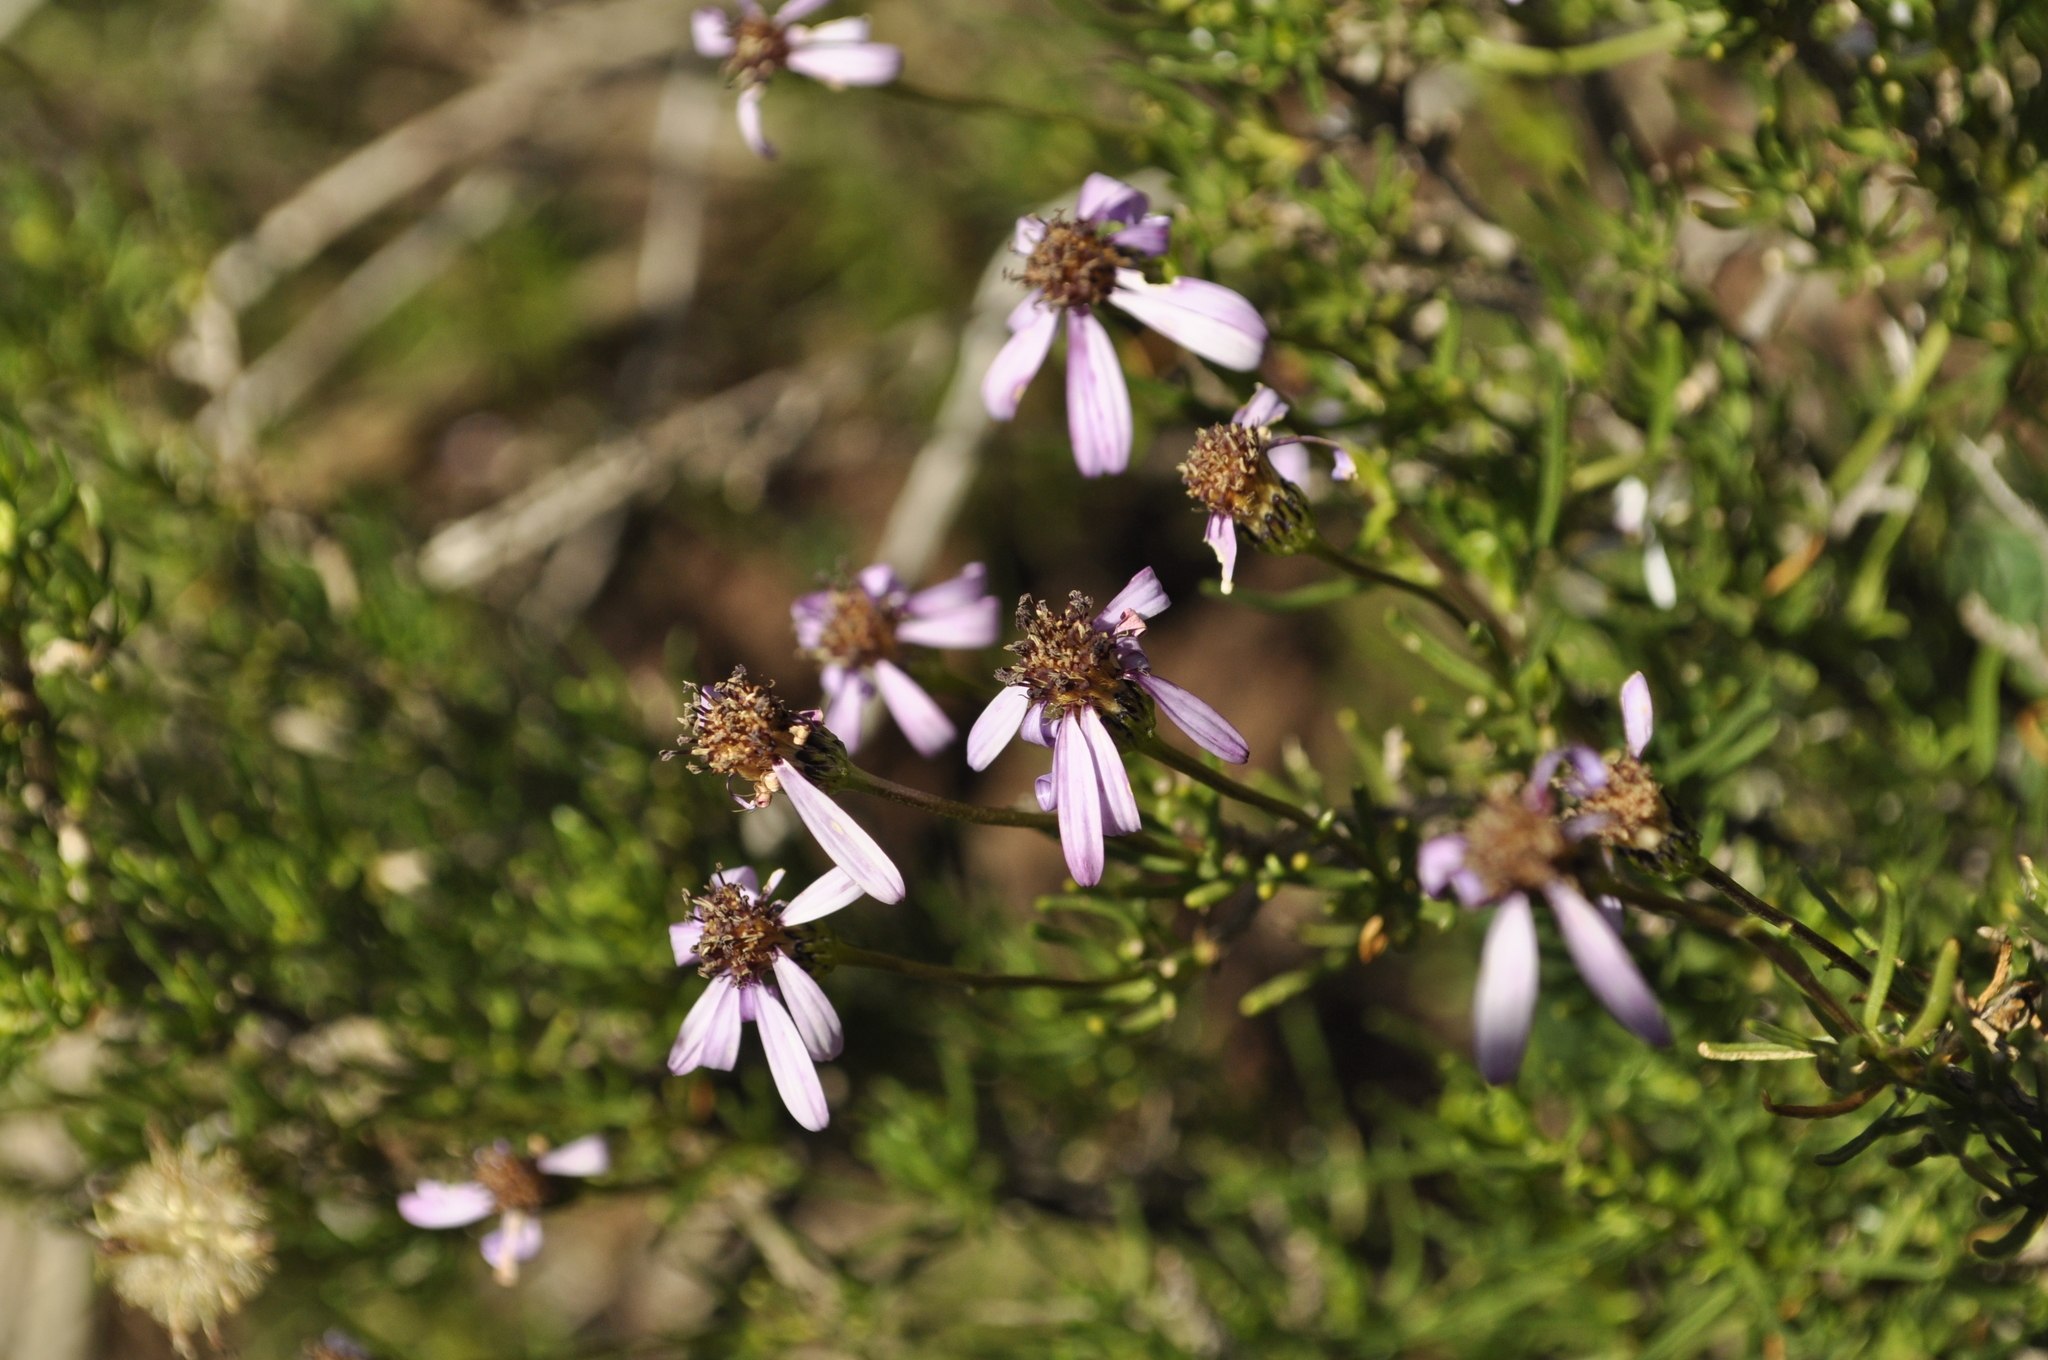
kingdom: Plantae
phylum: Tracheophyta
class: Magnoliopsida
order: Asterales
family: Asteraceae
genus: Felicia
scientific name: Felicia filifolia
